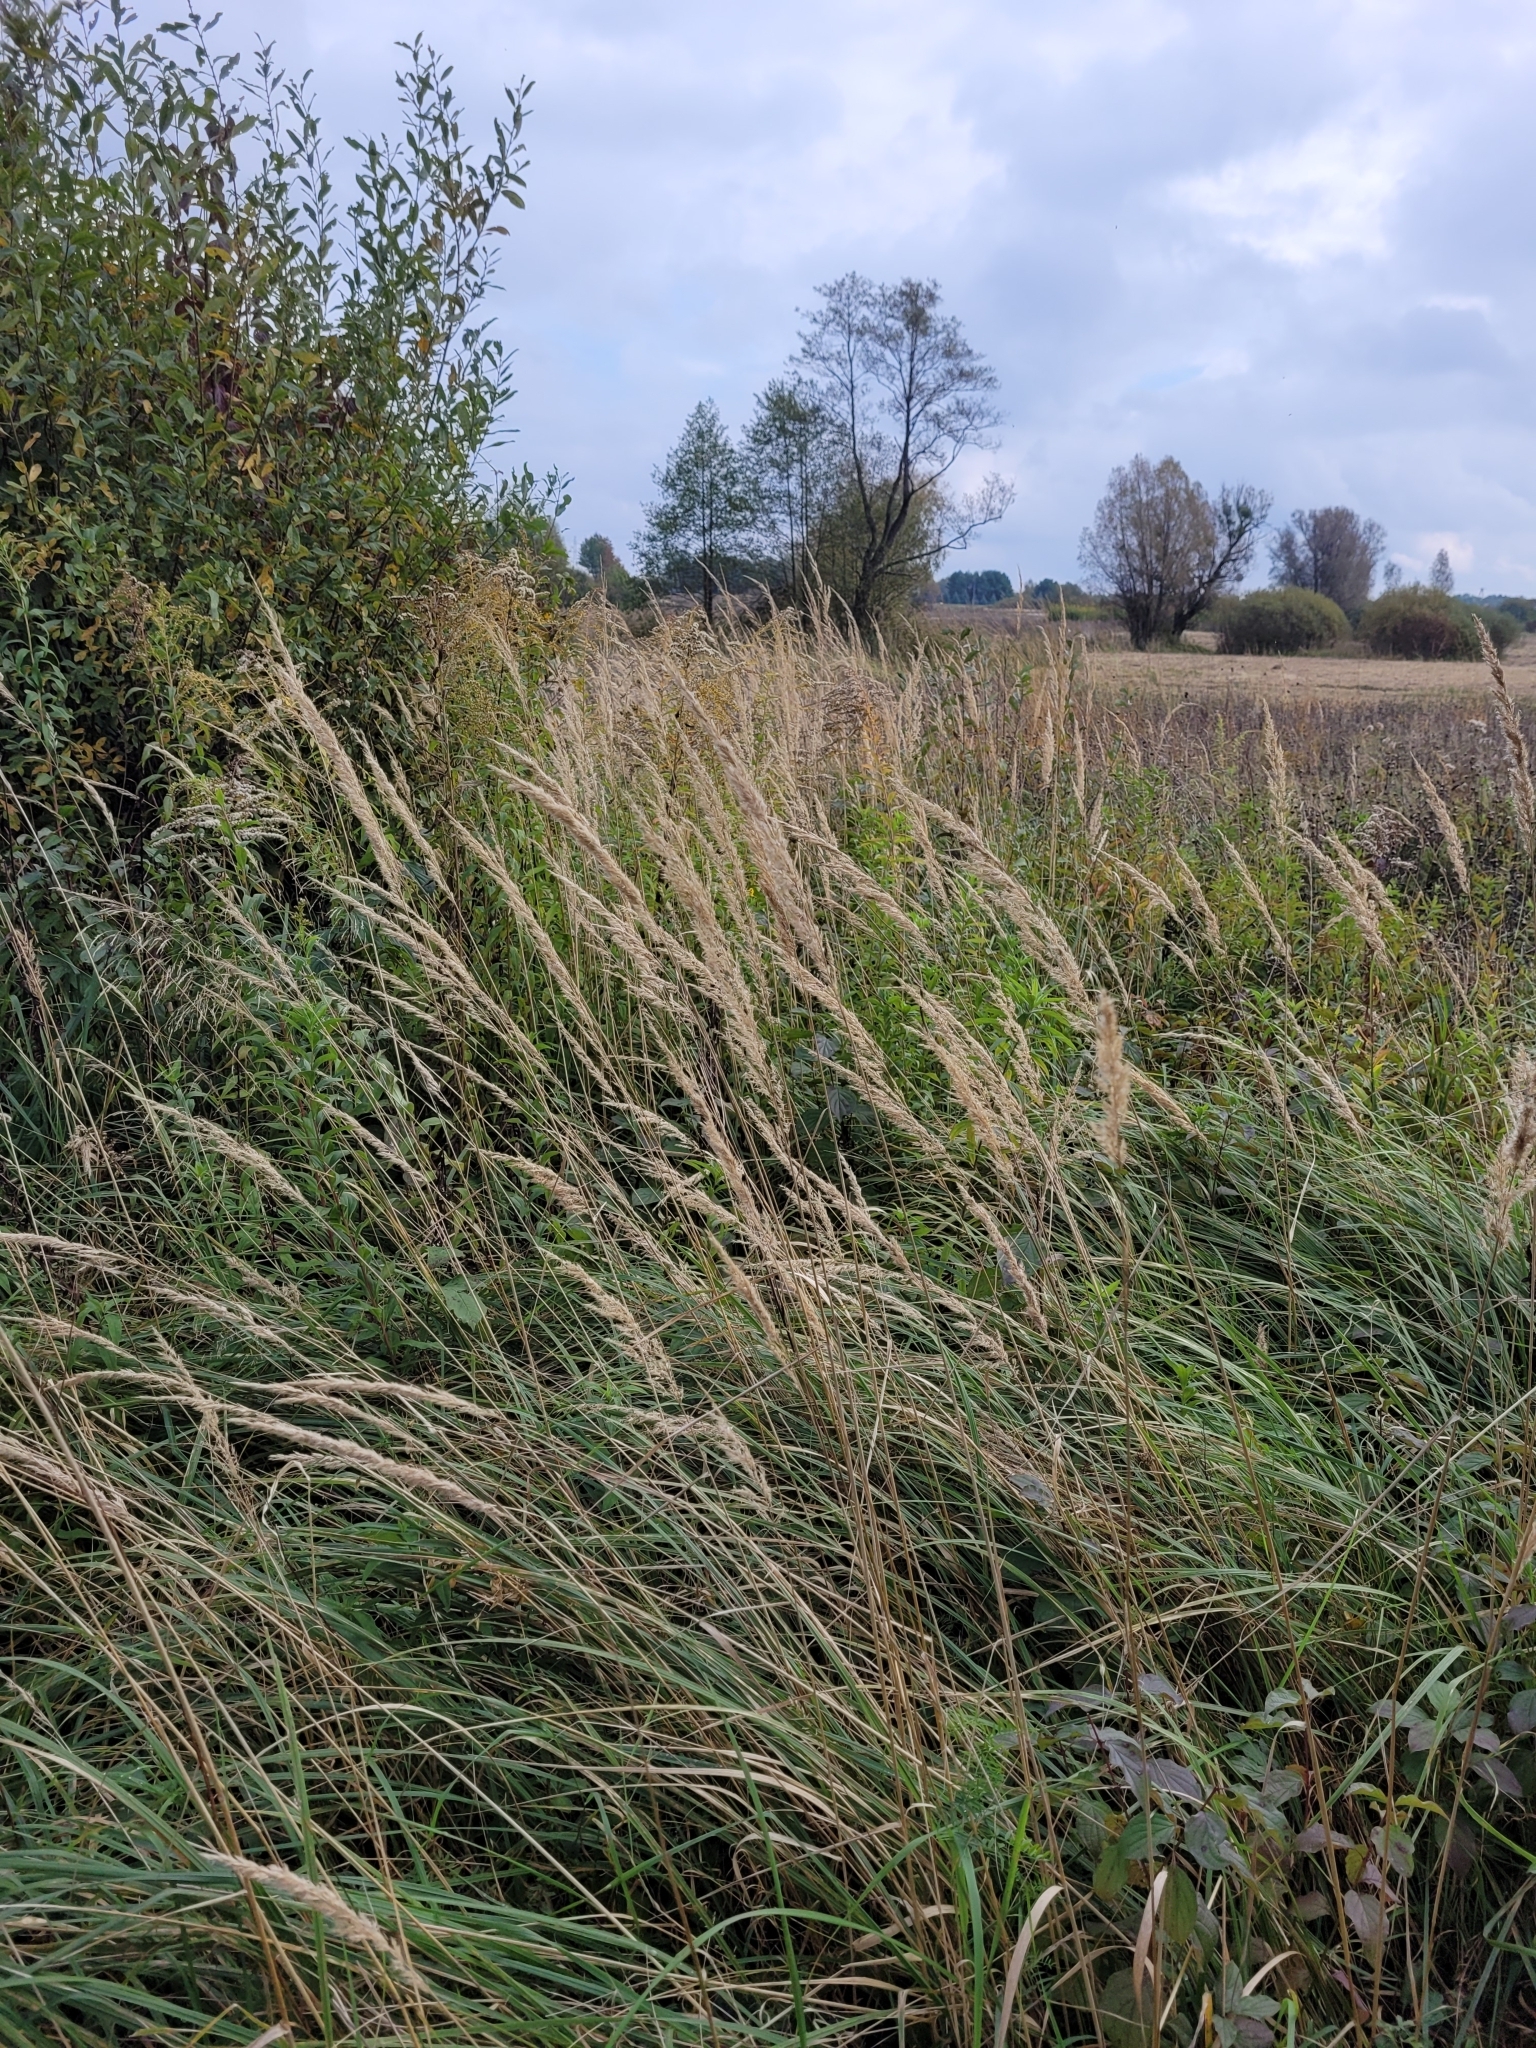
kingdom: Plantae
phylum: Tracheophyta
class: Liliopsida
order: Poales
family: Poaceae
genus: Calamagrostis
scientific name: Calamagrostis epigejos
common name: Wood small-reed
